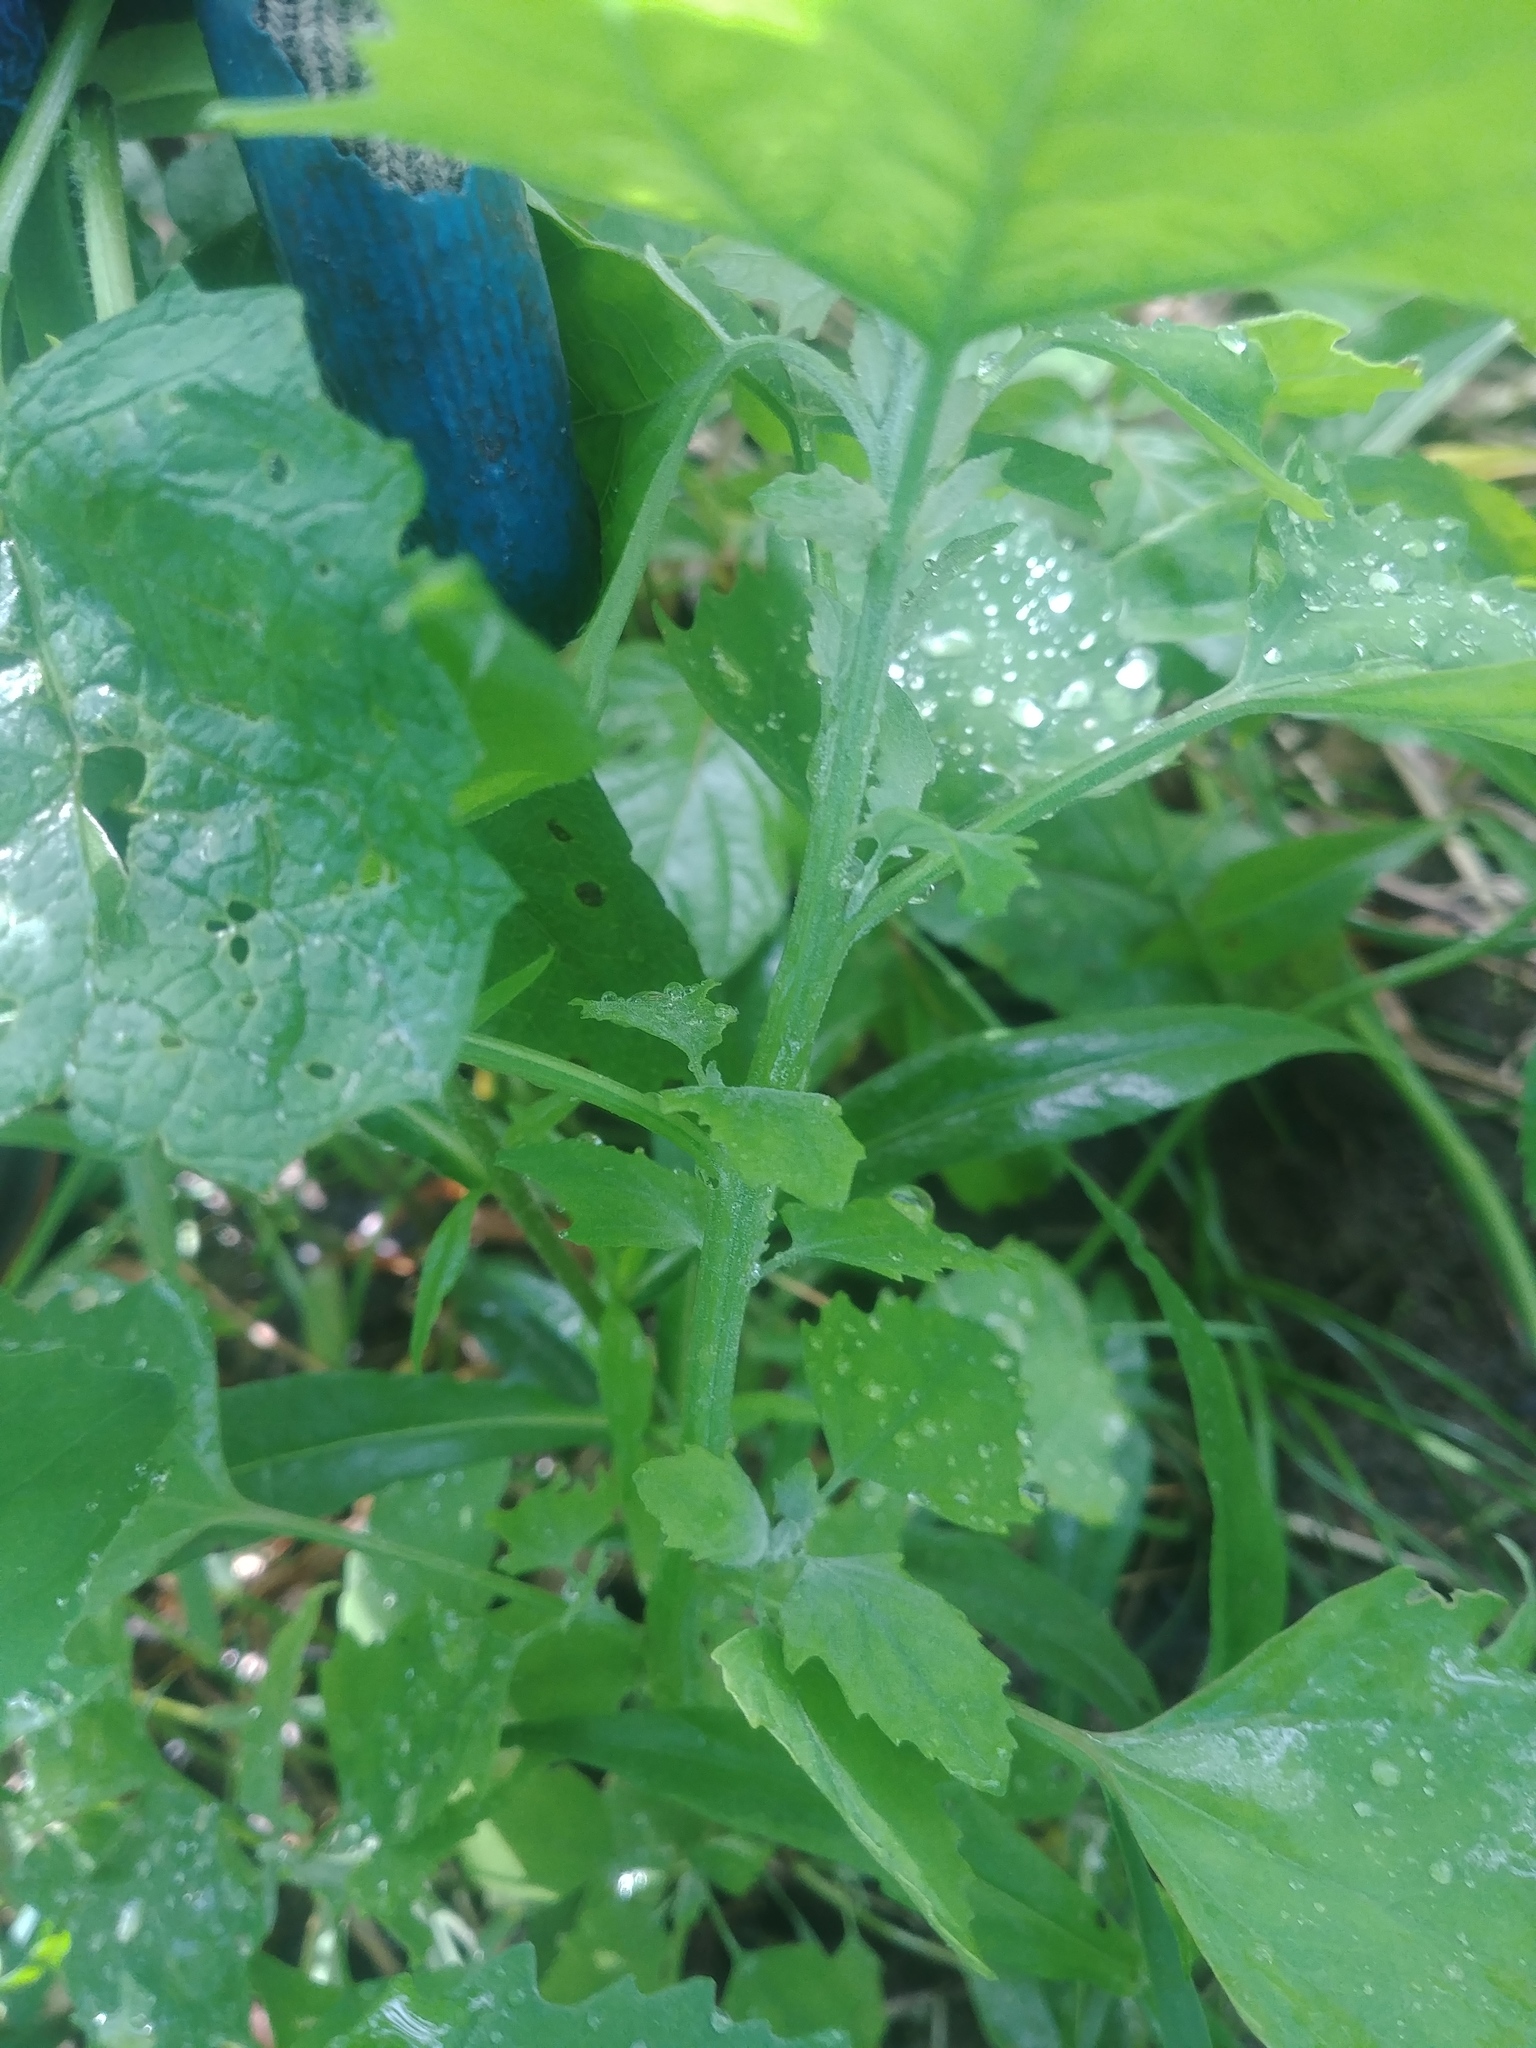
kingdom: Plantae
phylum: Tracheophyta
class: Magnoliopsida
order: Caryophyllales
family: Amaranthaceae
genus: Chenopodium
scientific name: Chenopodium album
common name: Fat-hen
